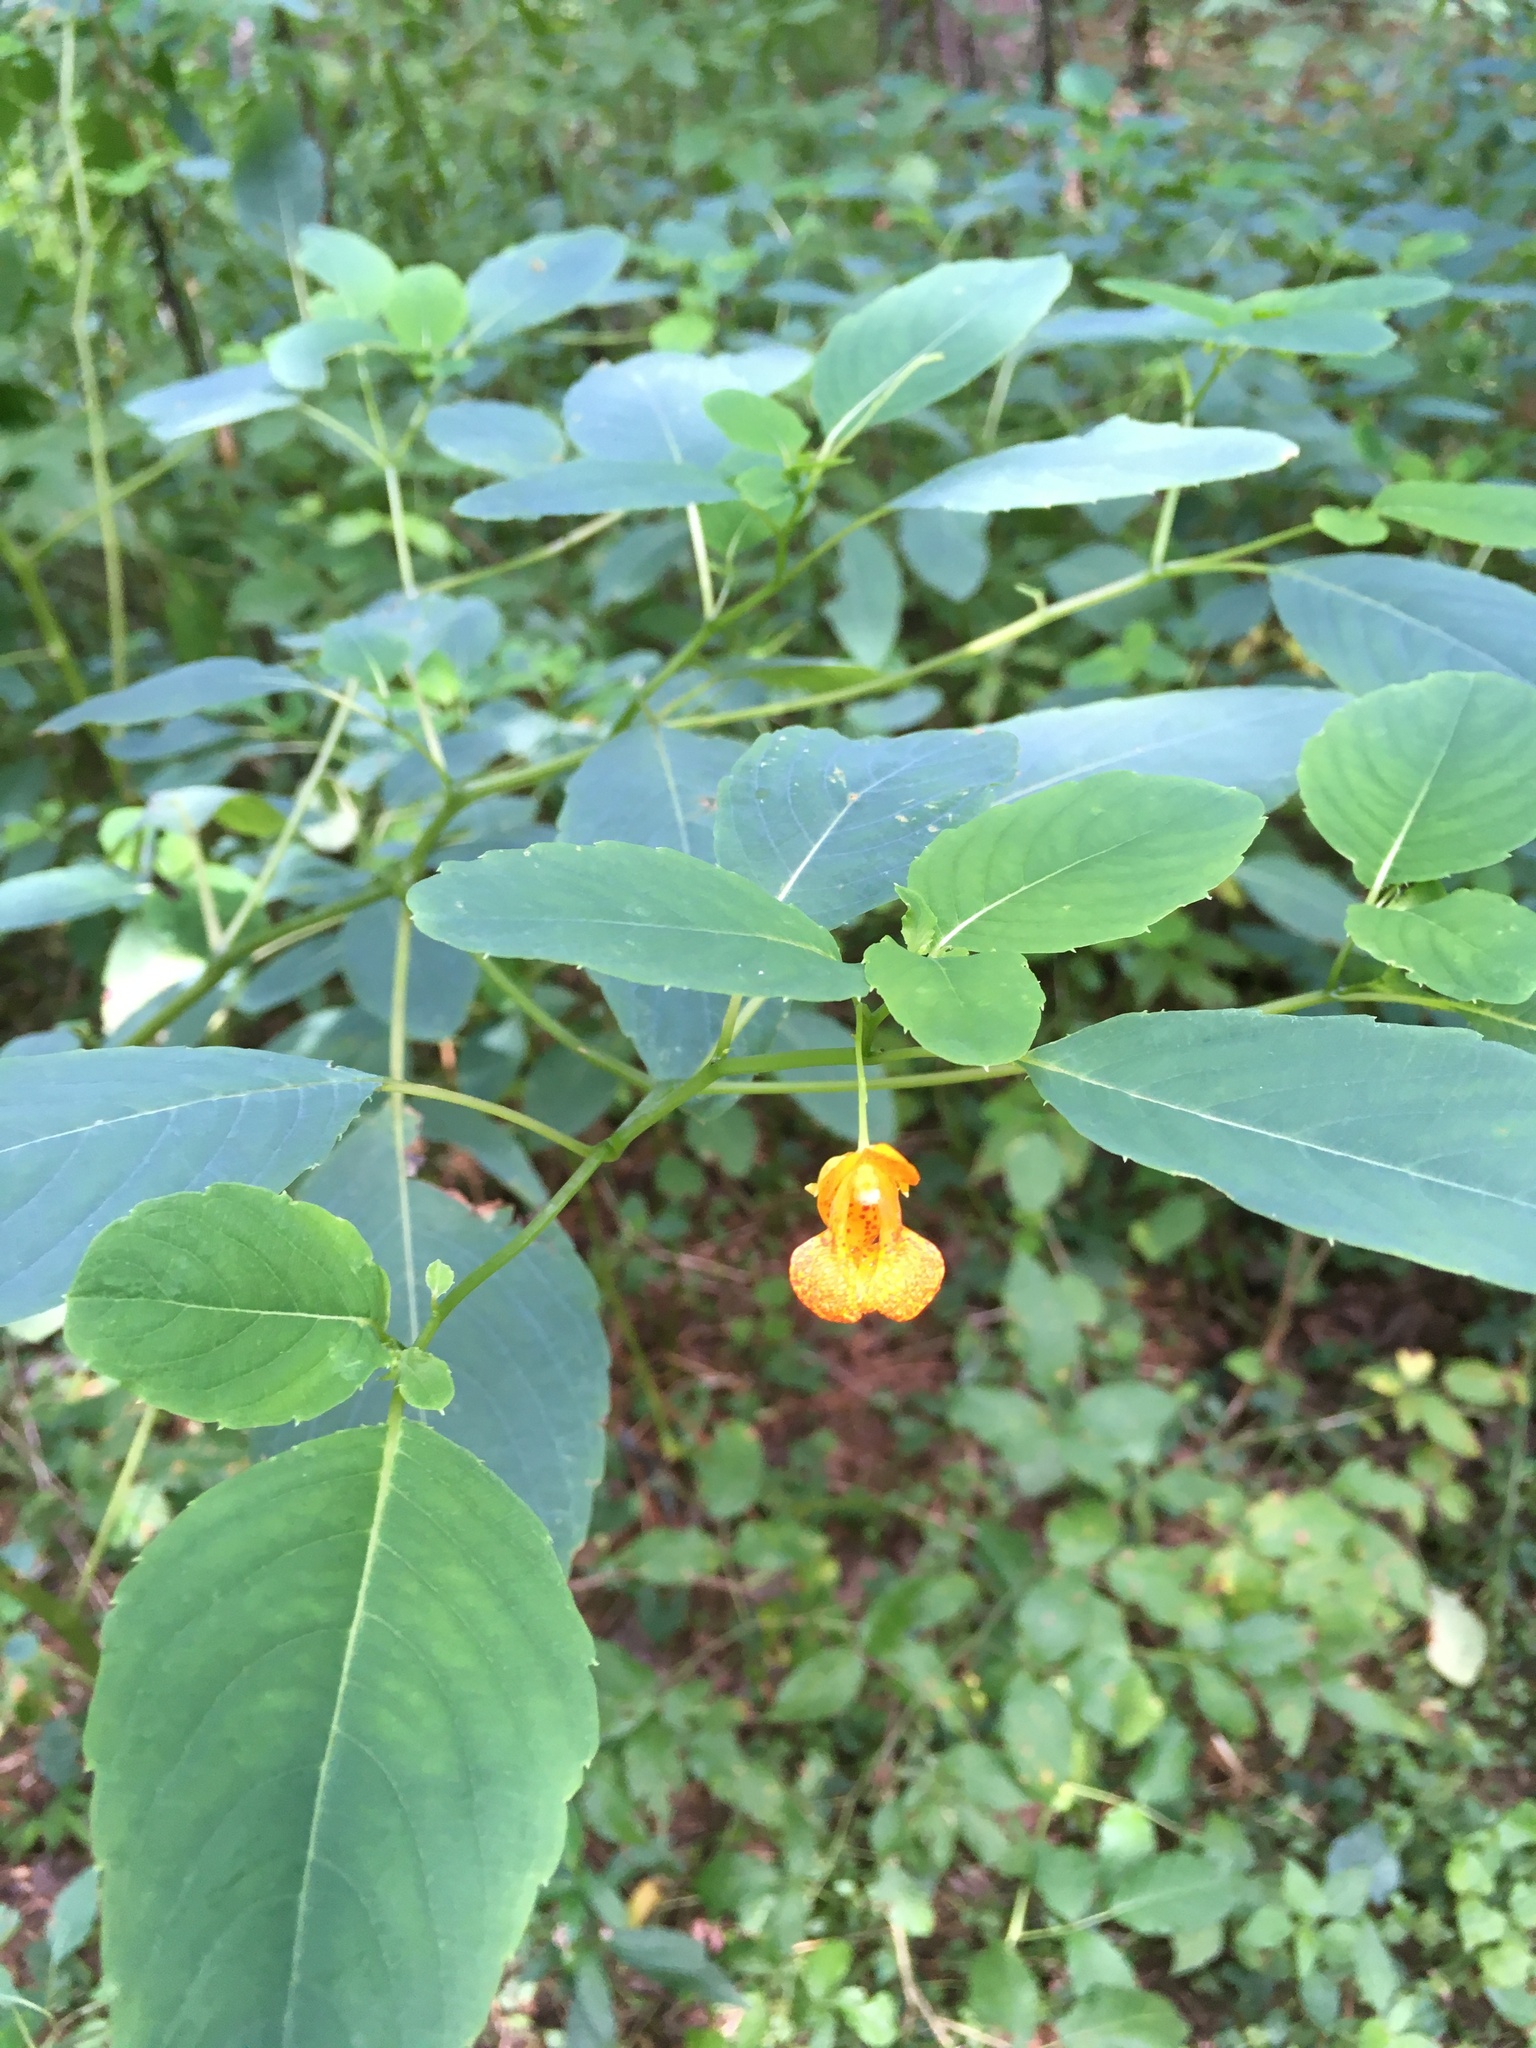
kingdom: Plantae
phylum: Tracheophyta
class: Magnoliopsida
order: Ericales
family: Balsaminaceae
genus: Impatiens
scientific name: Impatiens capensis
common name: Orange balsam
